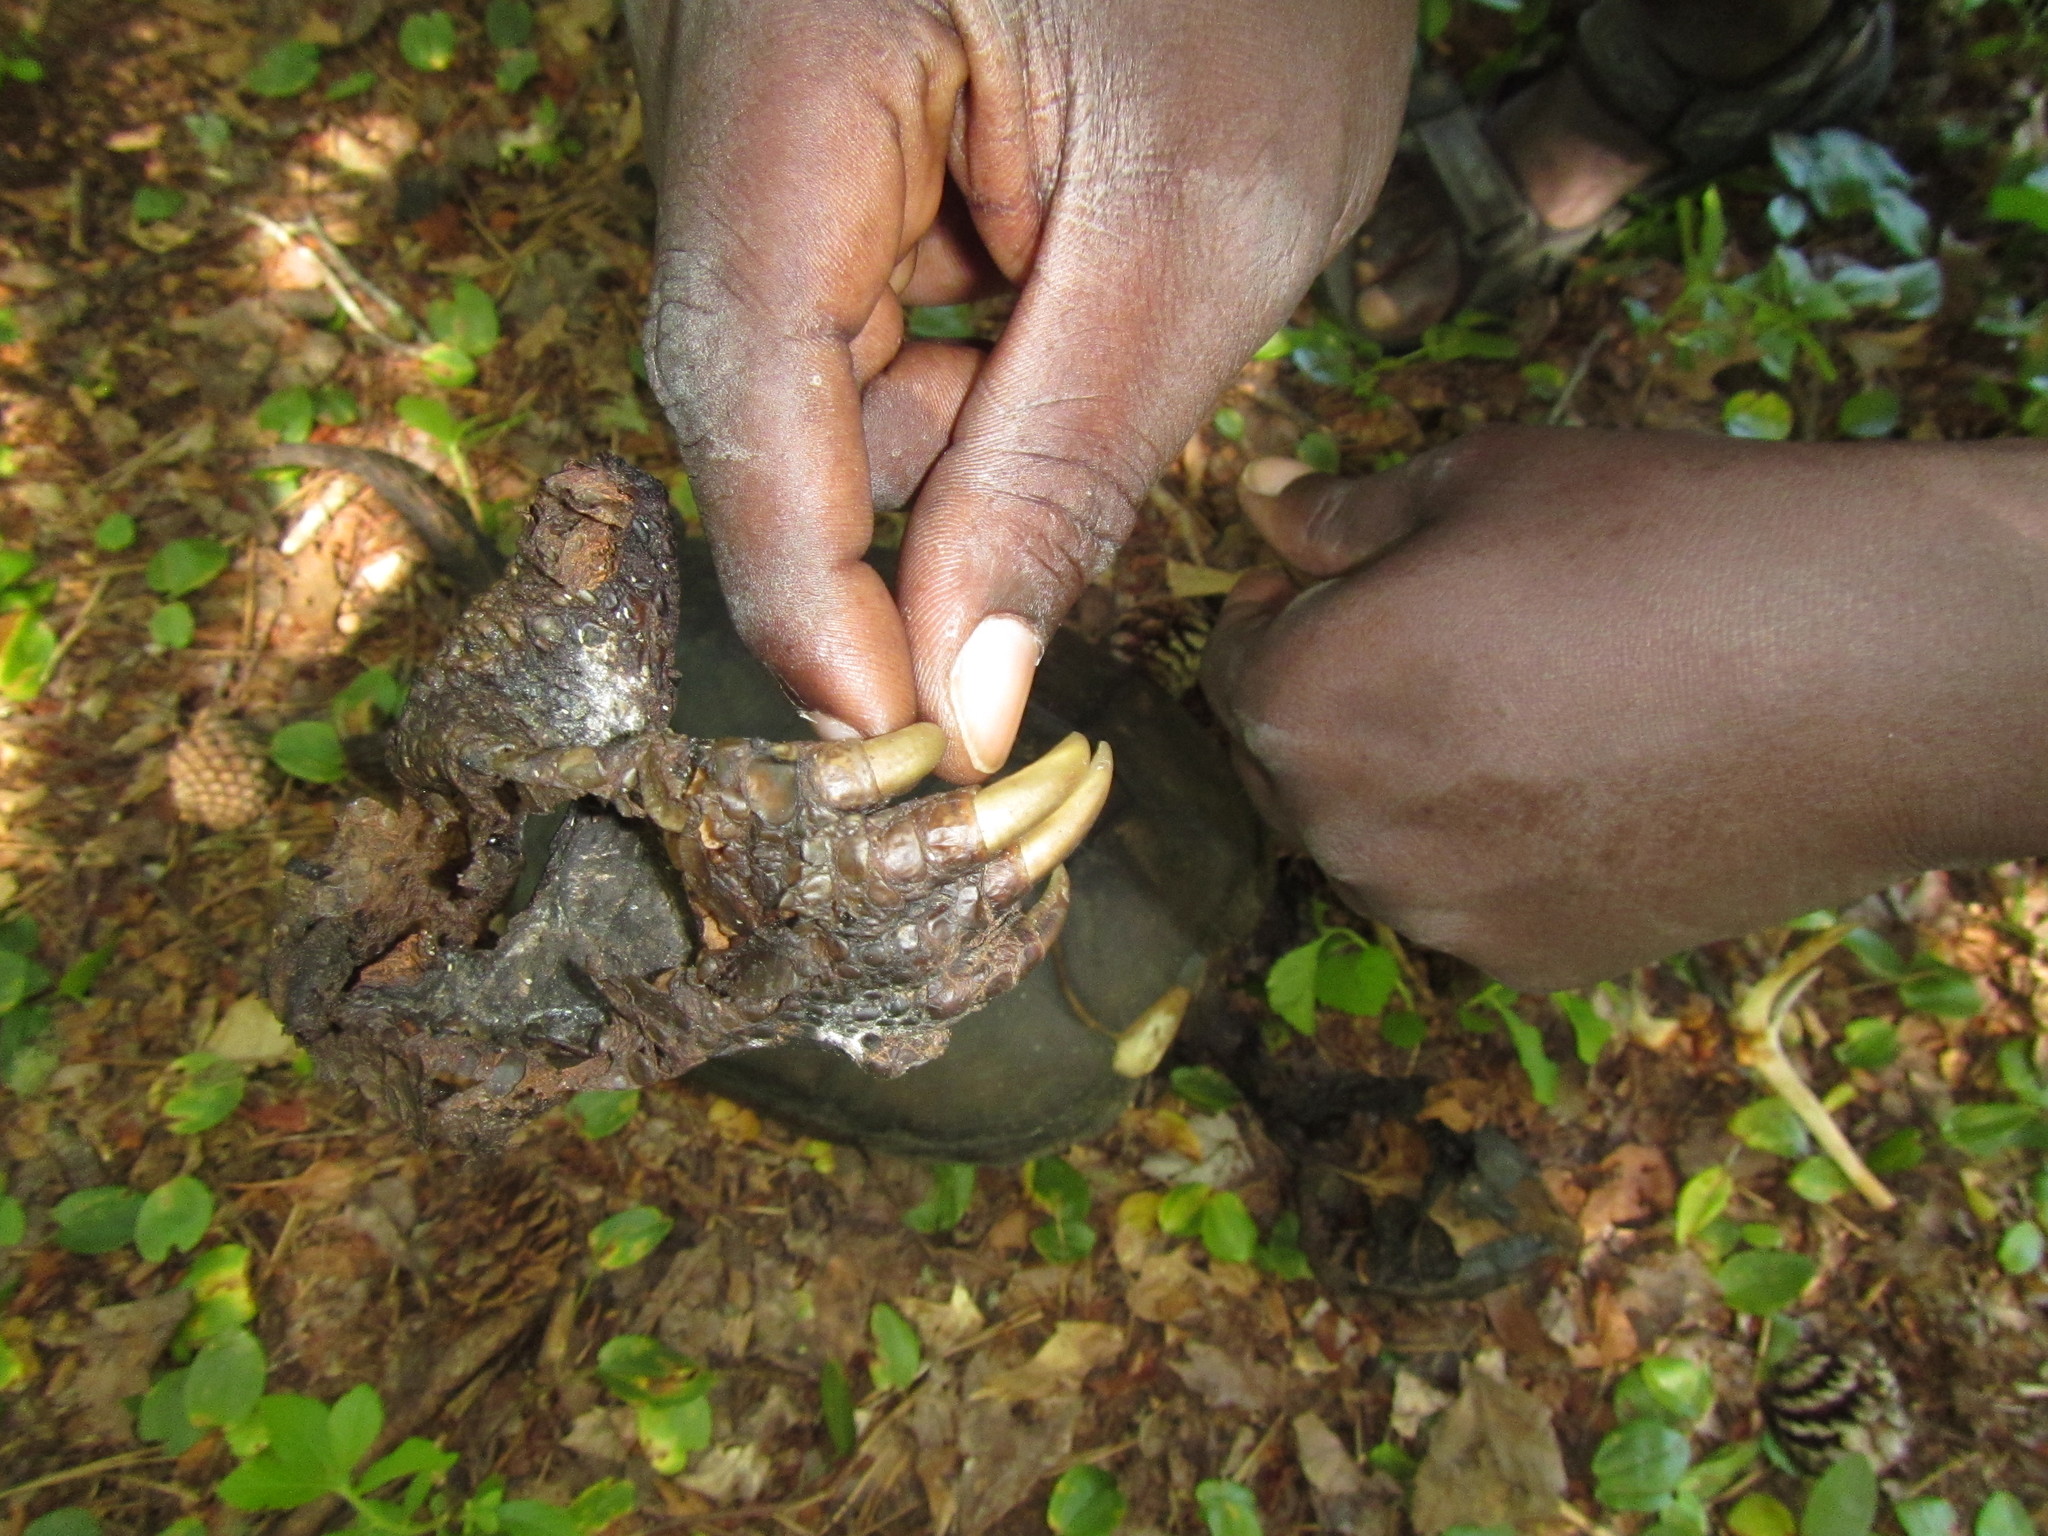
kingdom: Animalia
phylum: Chordata
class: Testudines
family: Chelydridae
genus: Chelydra
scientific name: Chelydra serpentina
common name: Common snapping turtle
